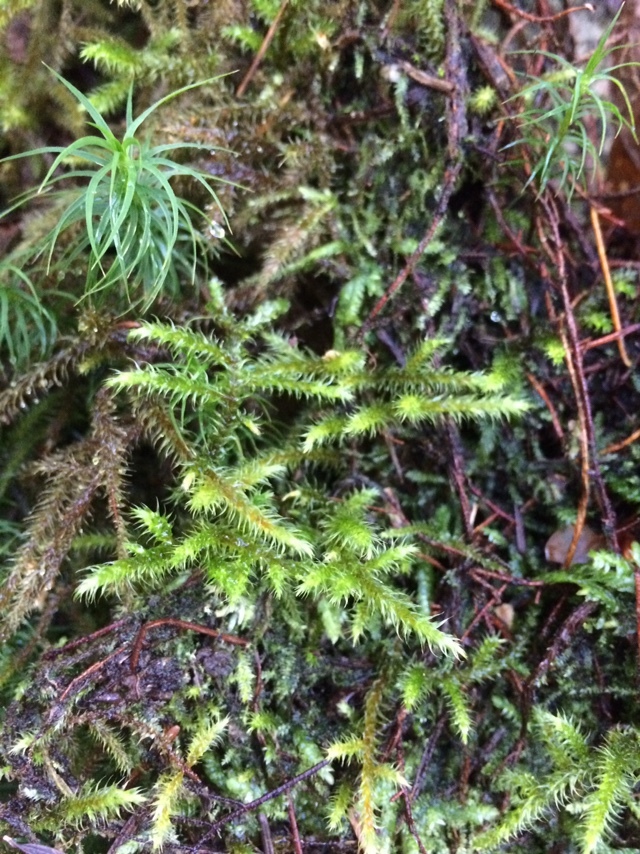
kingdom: Plantae
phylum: Bryophyta
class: Bryopsida
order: Hypnales
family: Hylocomiaceae
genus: Rhytidiadelphus
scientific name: Rhytidiadelphus loreus
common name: Lanky moss
